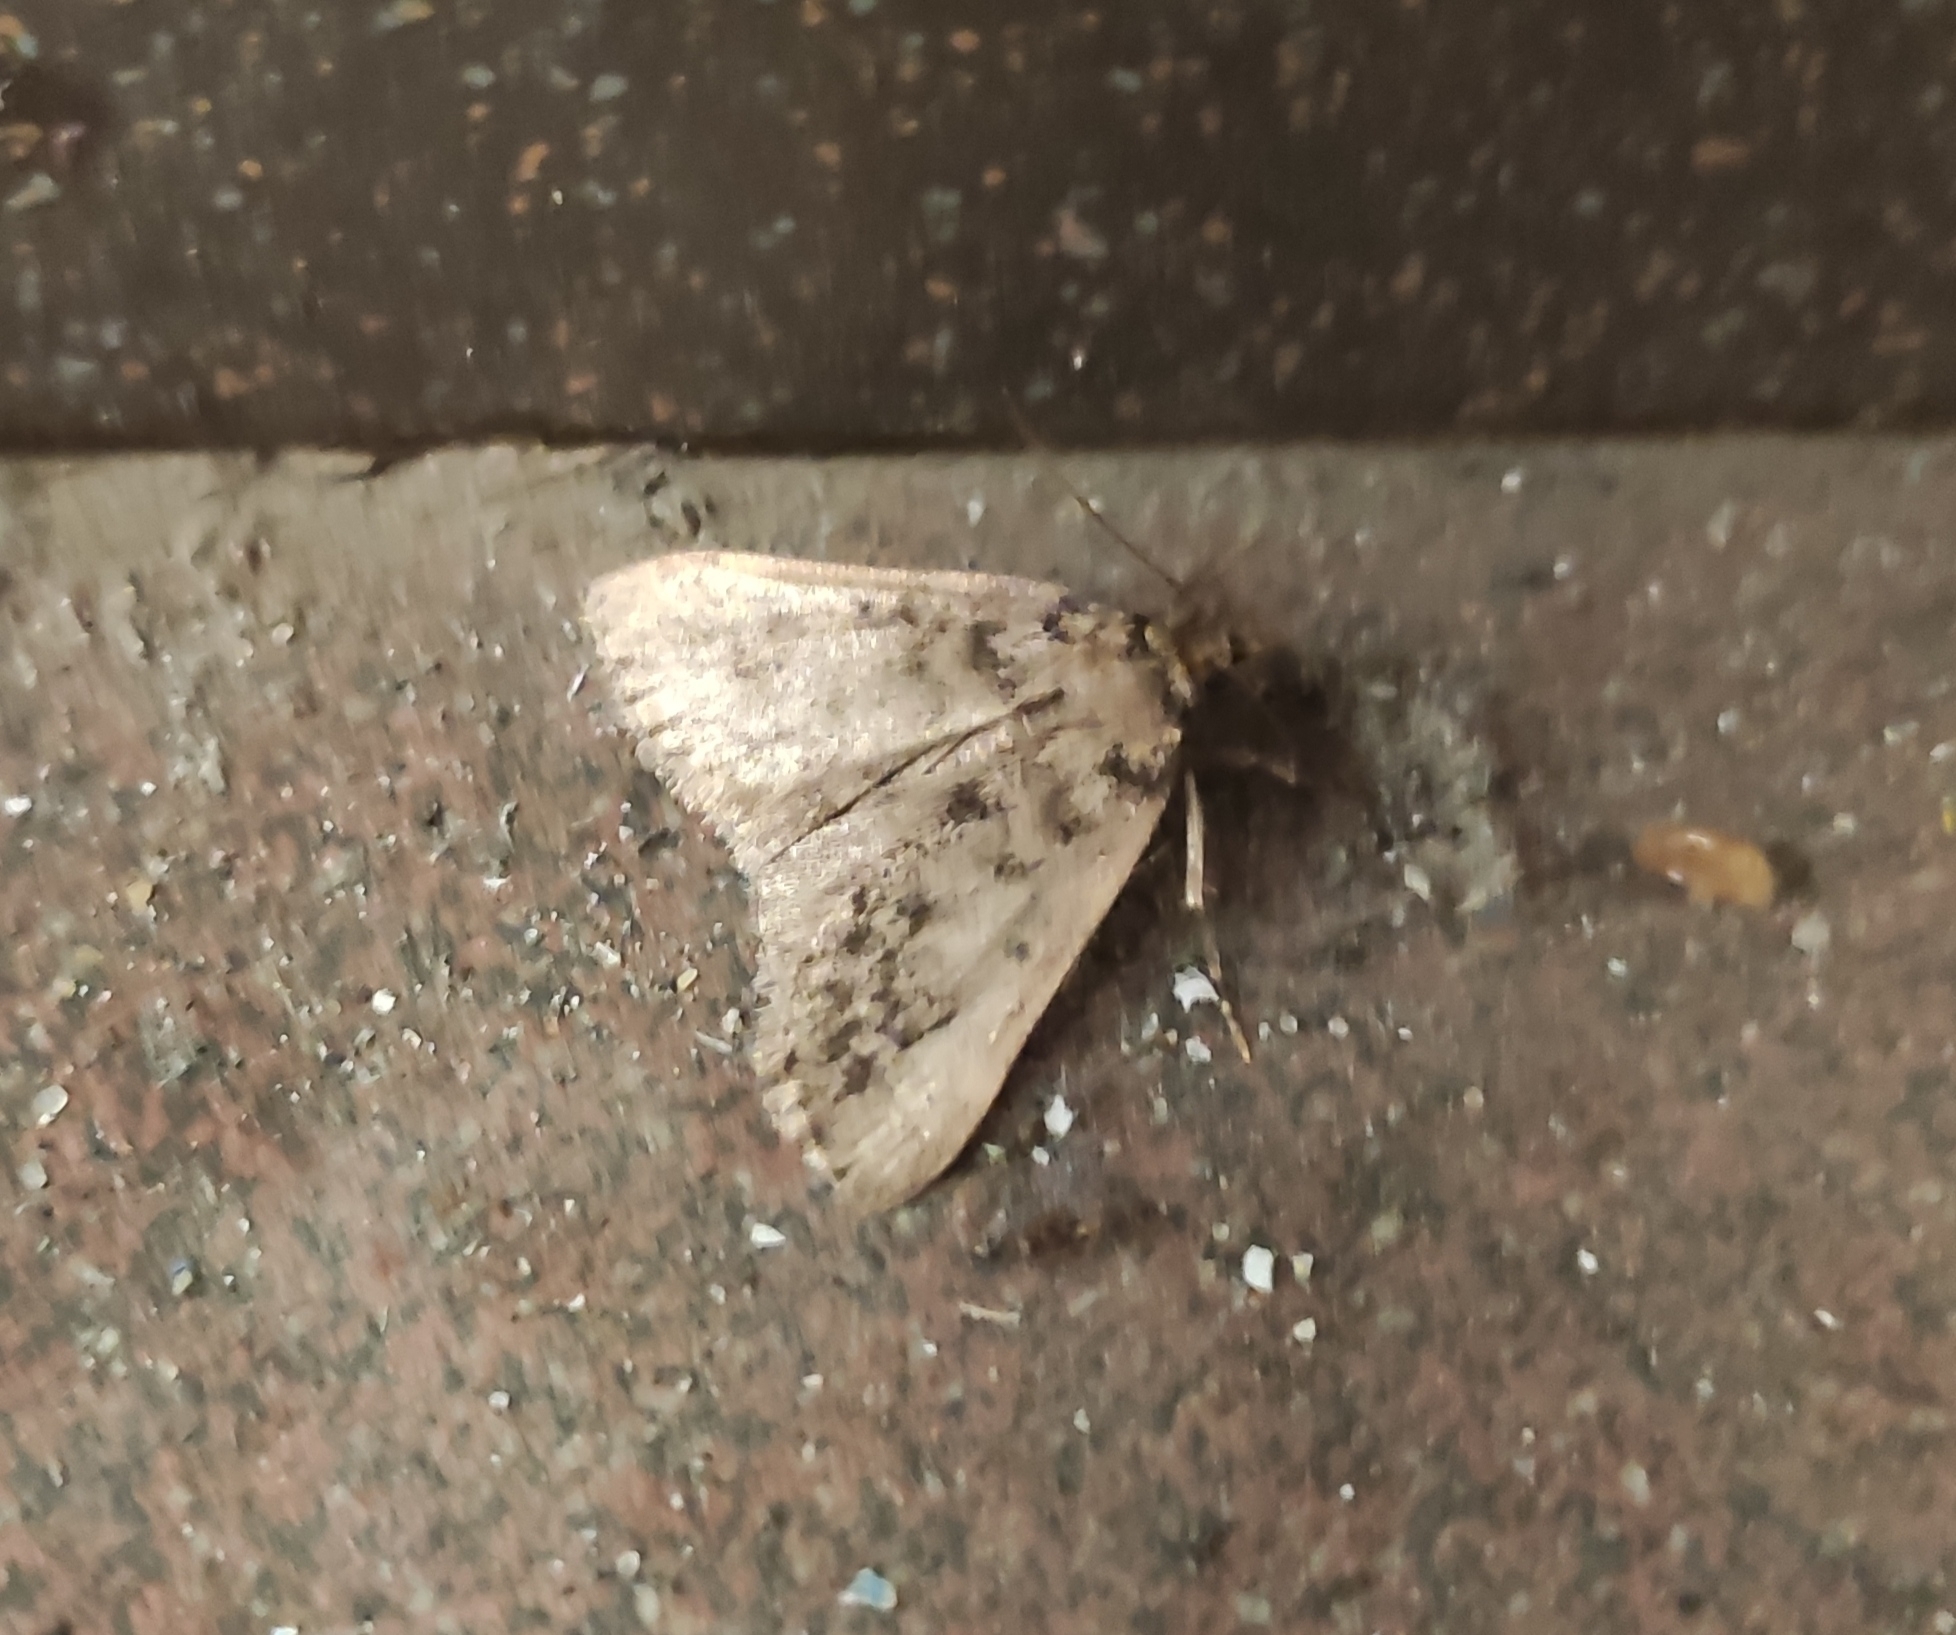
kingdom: Animalia
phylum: Arthropoda
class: Insecta
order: Lepidoptera
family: Pyralidae
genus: Aglossa
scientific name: Aglossa pinguinalis
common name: Large tabby
